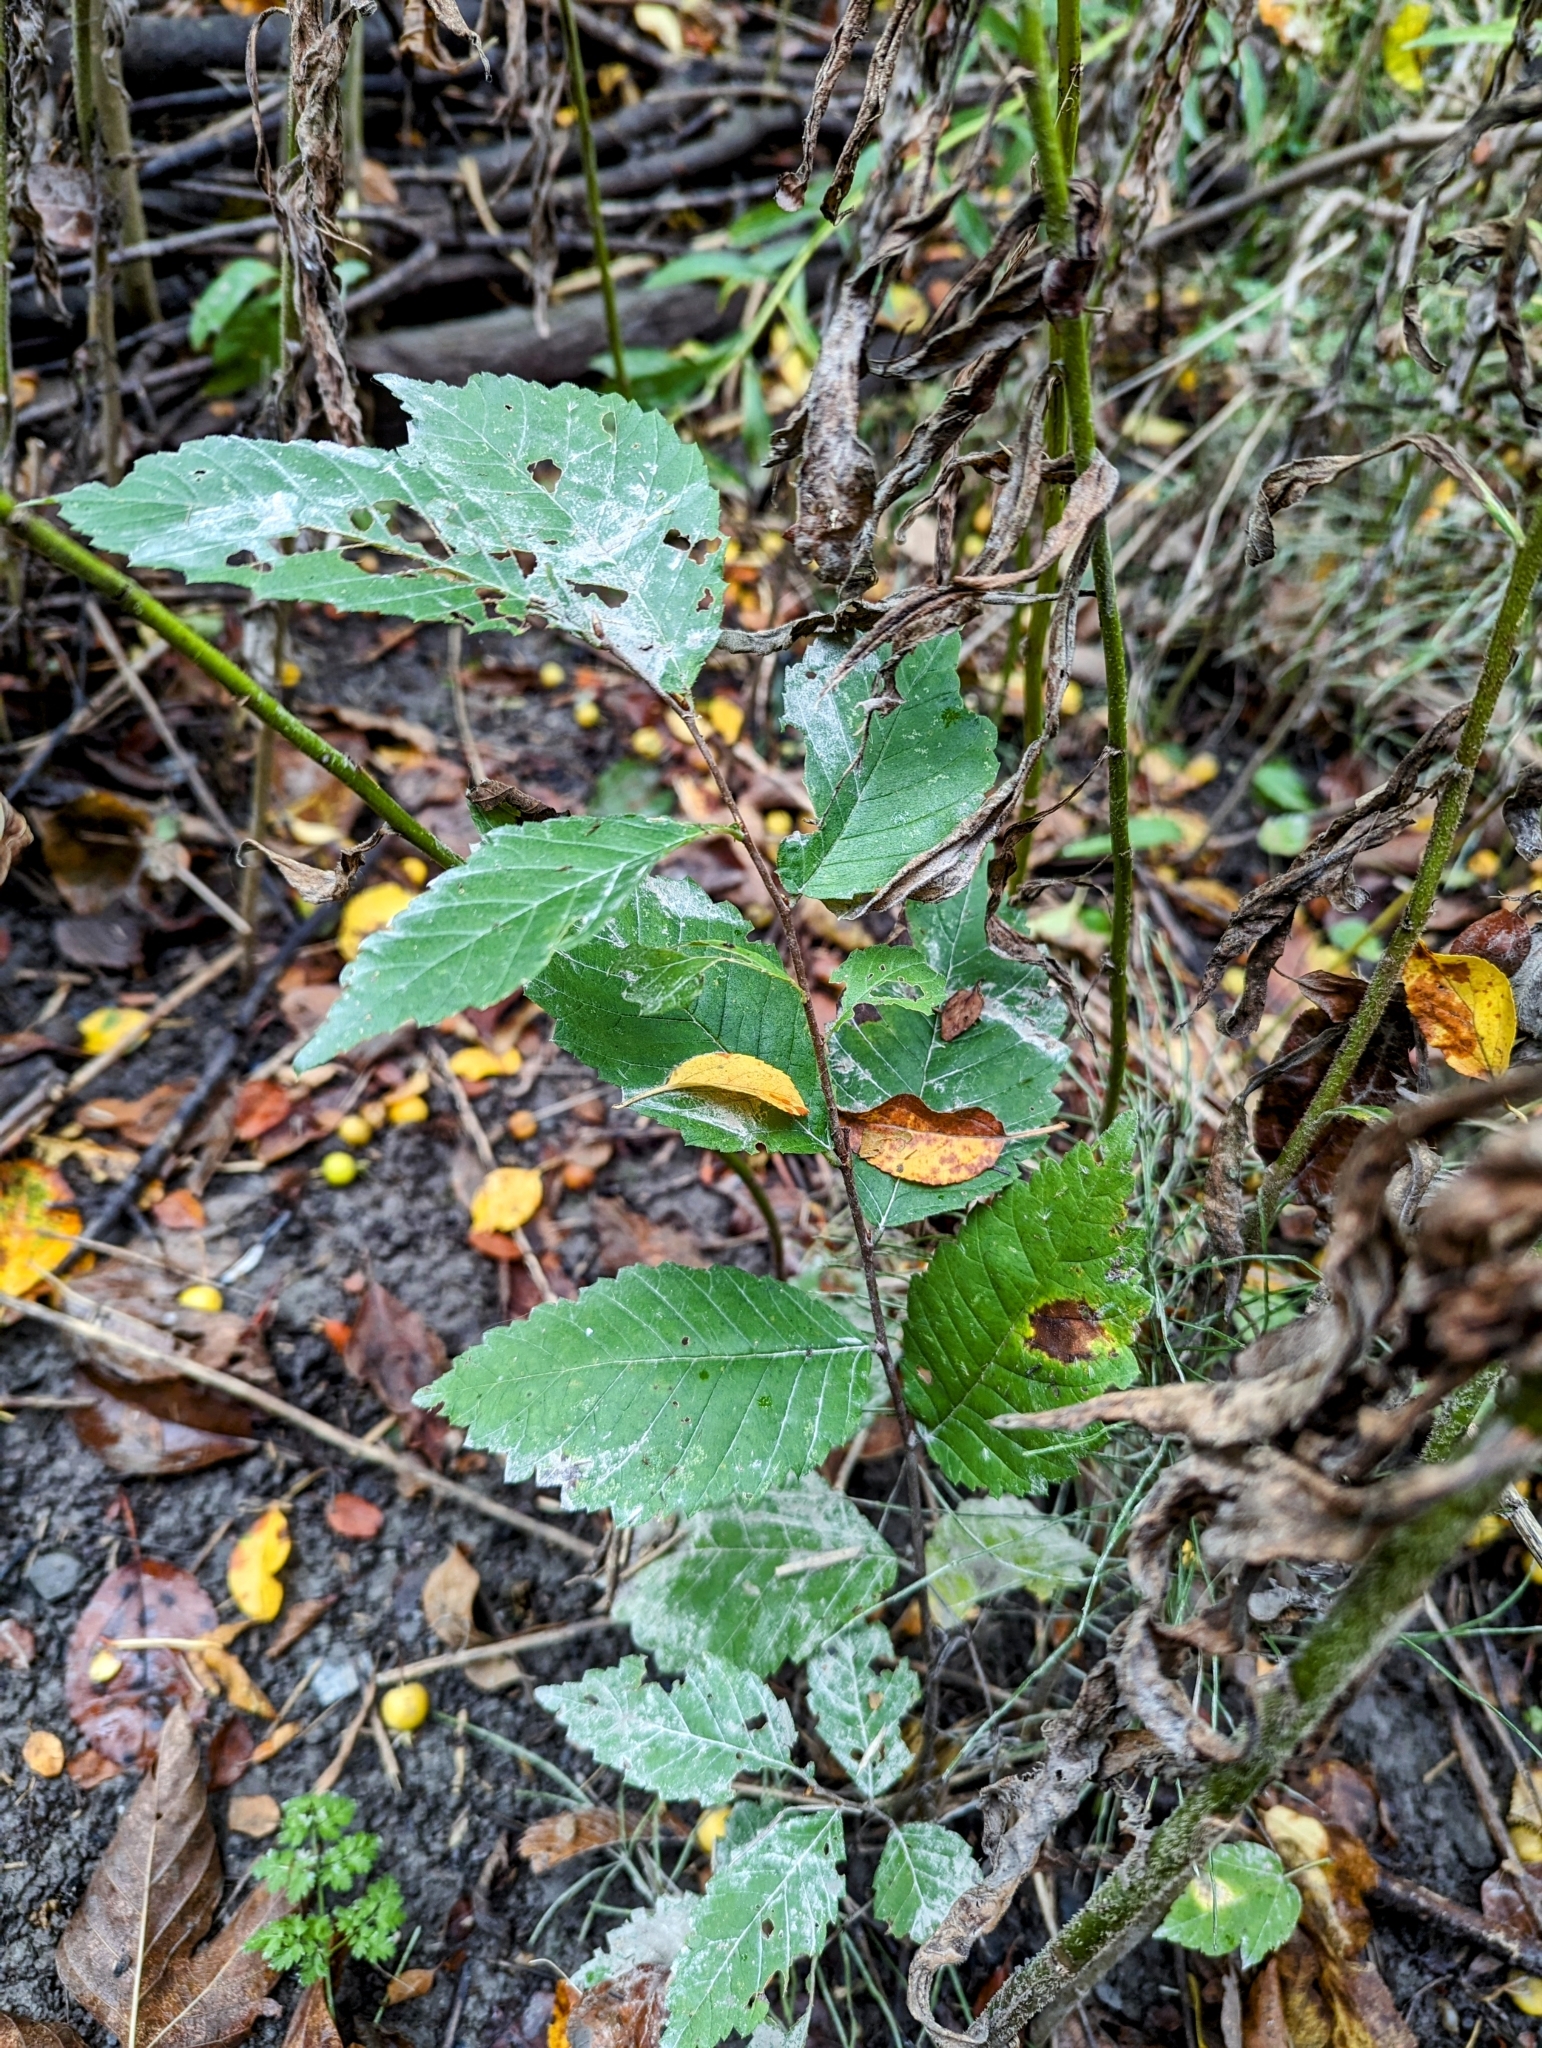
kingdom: Plantae
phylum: Tracheophyta
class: Magnoliopsida
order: Rosales
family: Ulmaceae
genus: Ulmus
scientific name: Ulmus americana
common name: American elm
